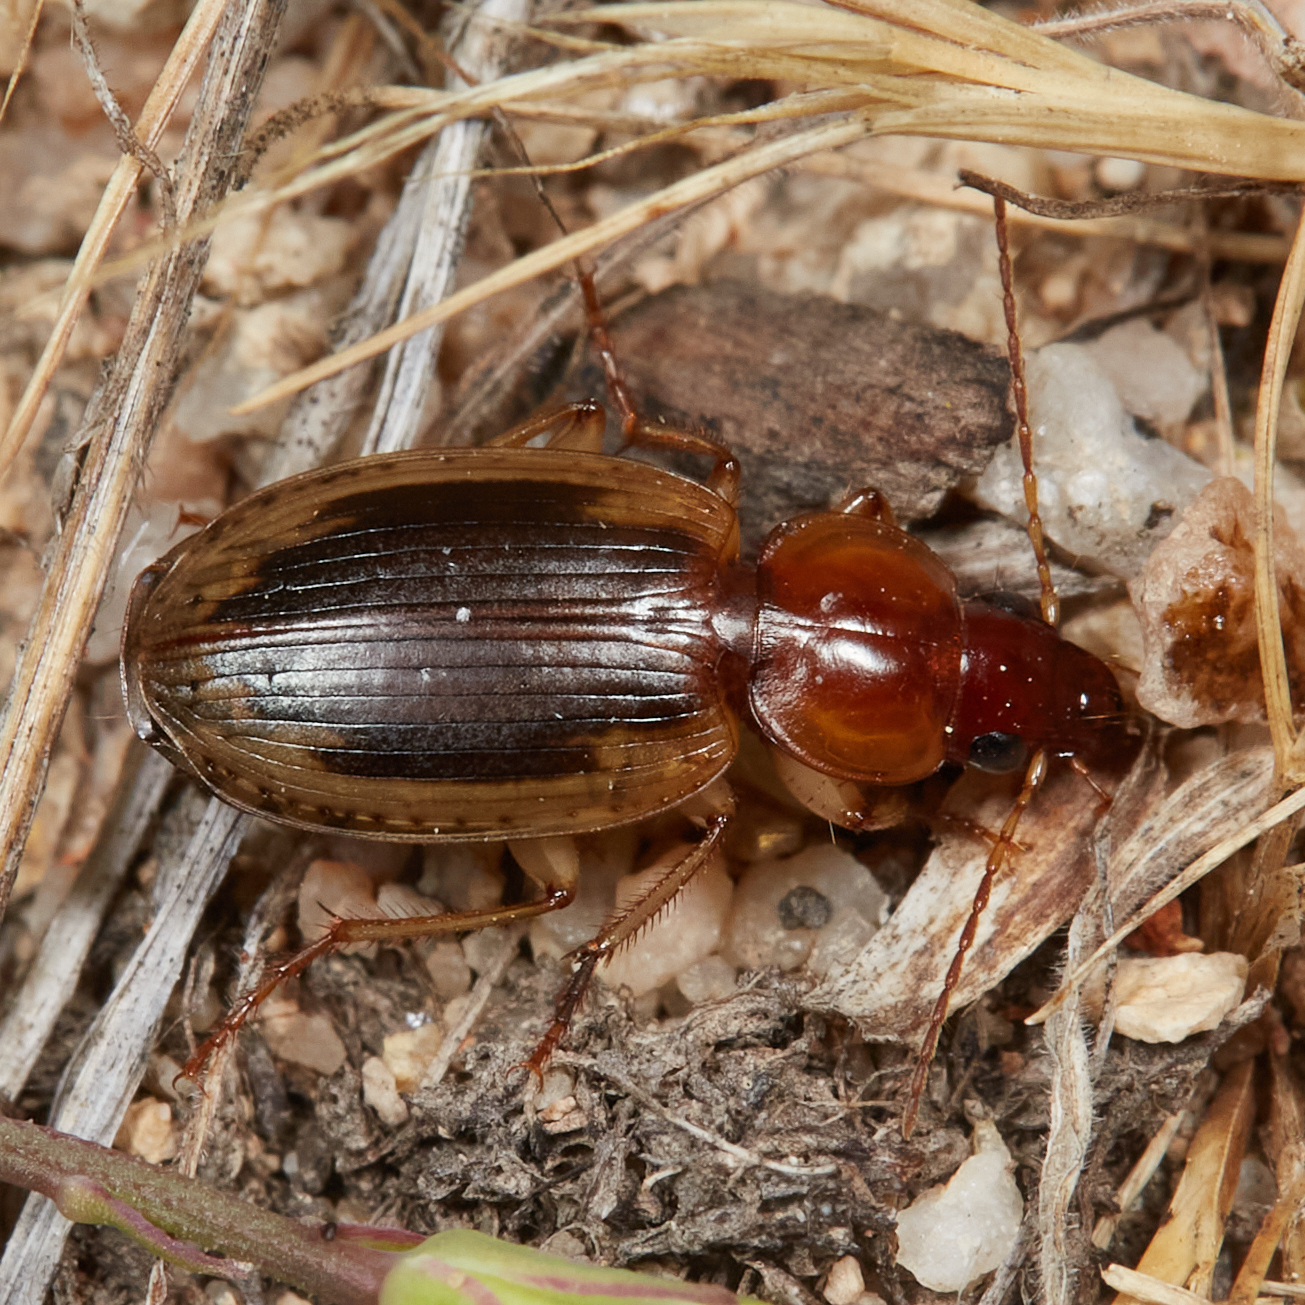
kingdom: Animalia
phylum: Arthropoda
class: Insecta
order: Coleoptera
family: Carabidae
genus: Tanystoma
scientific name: Tanystoma maculicolle
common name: Tule beetle
